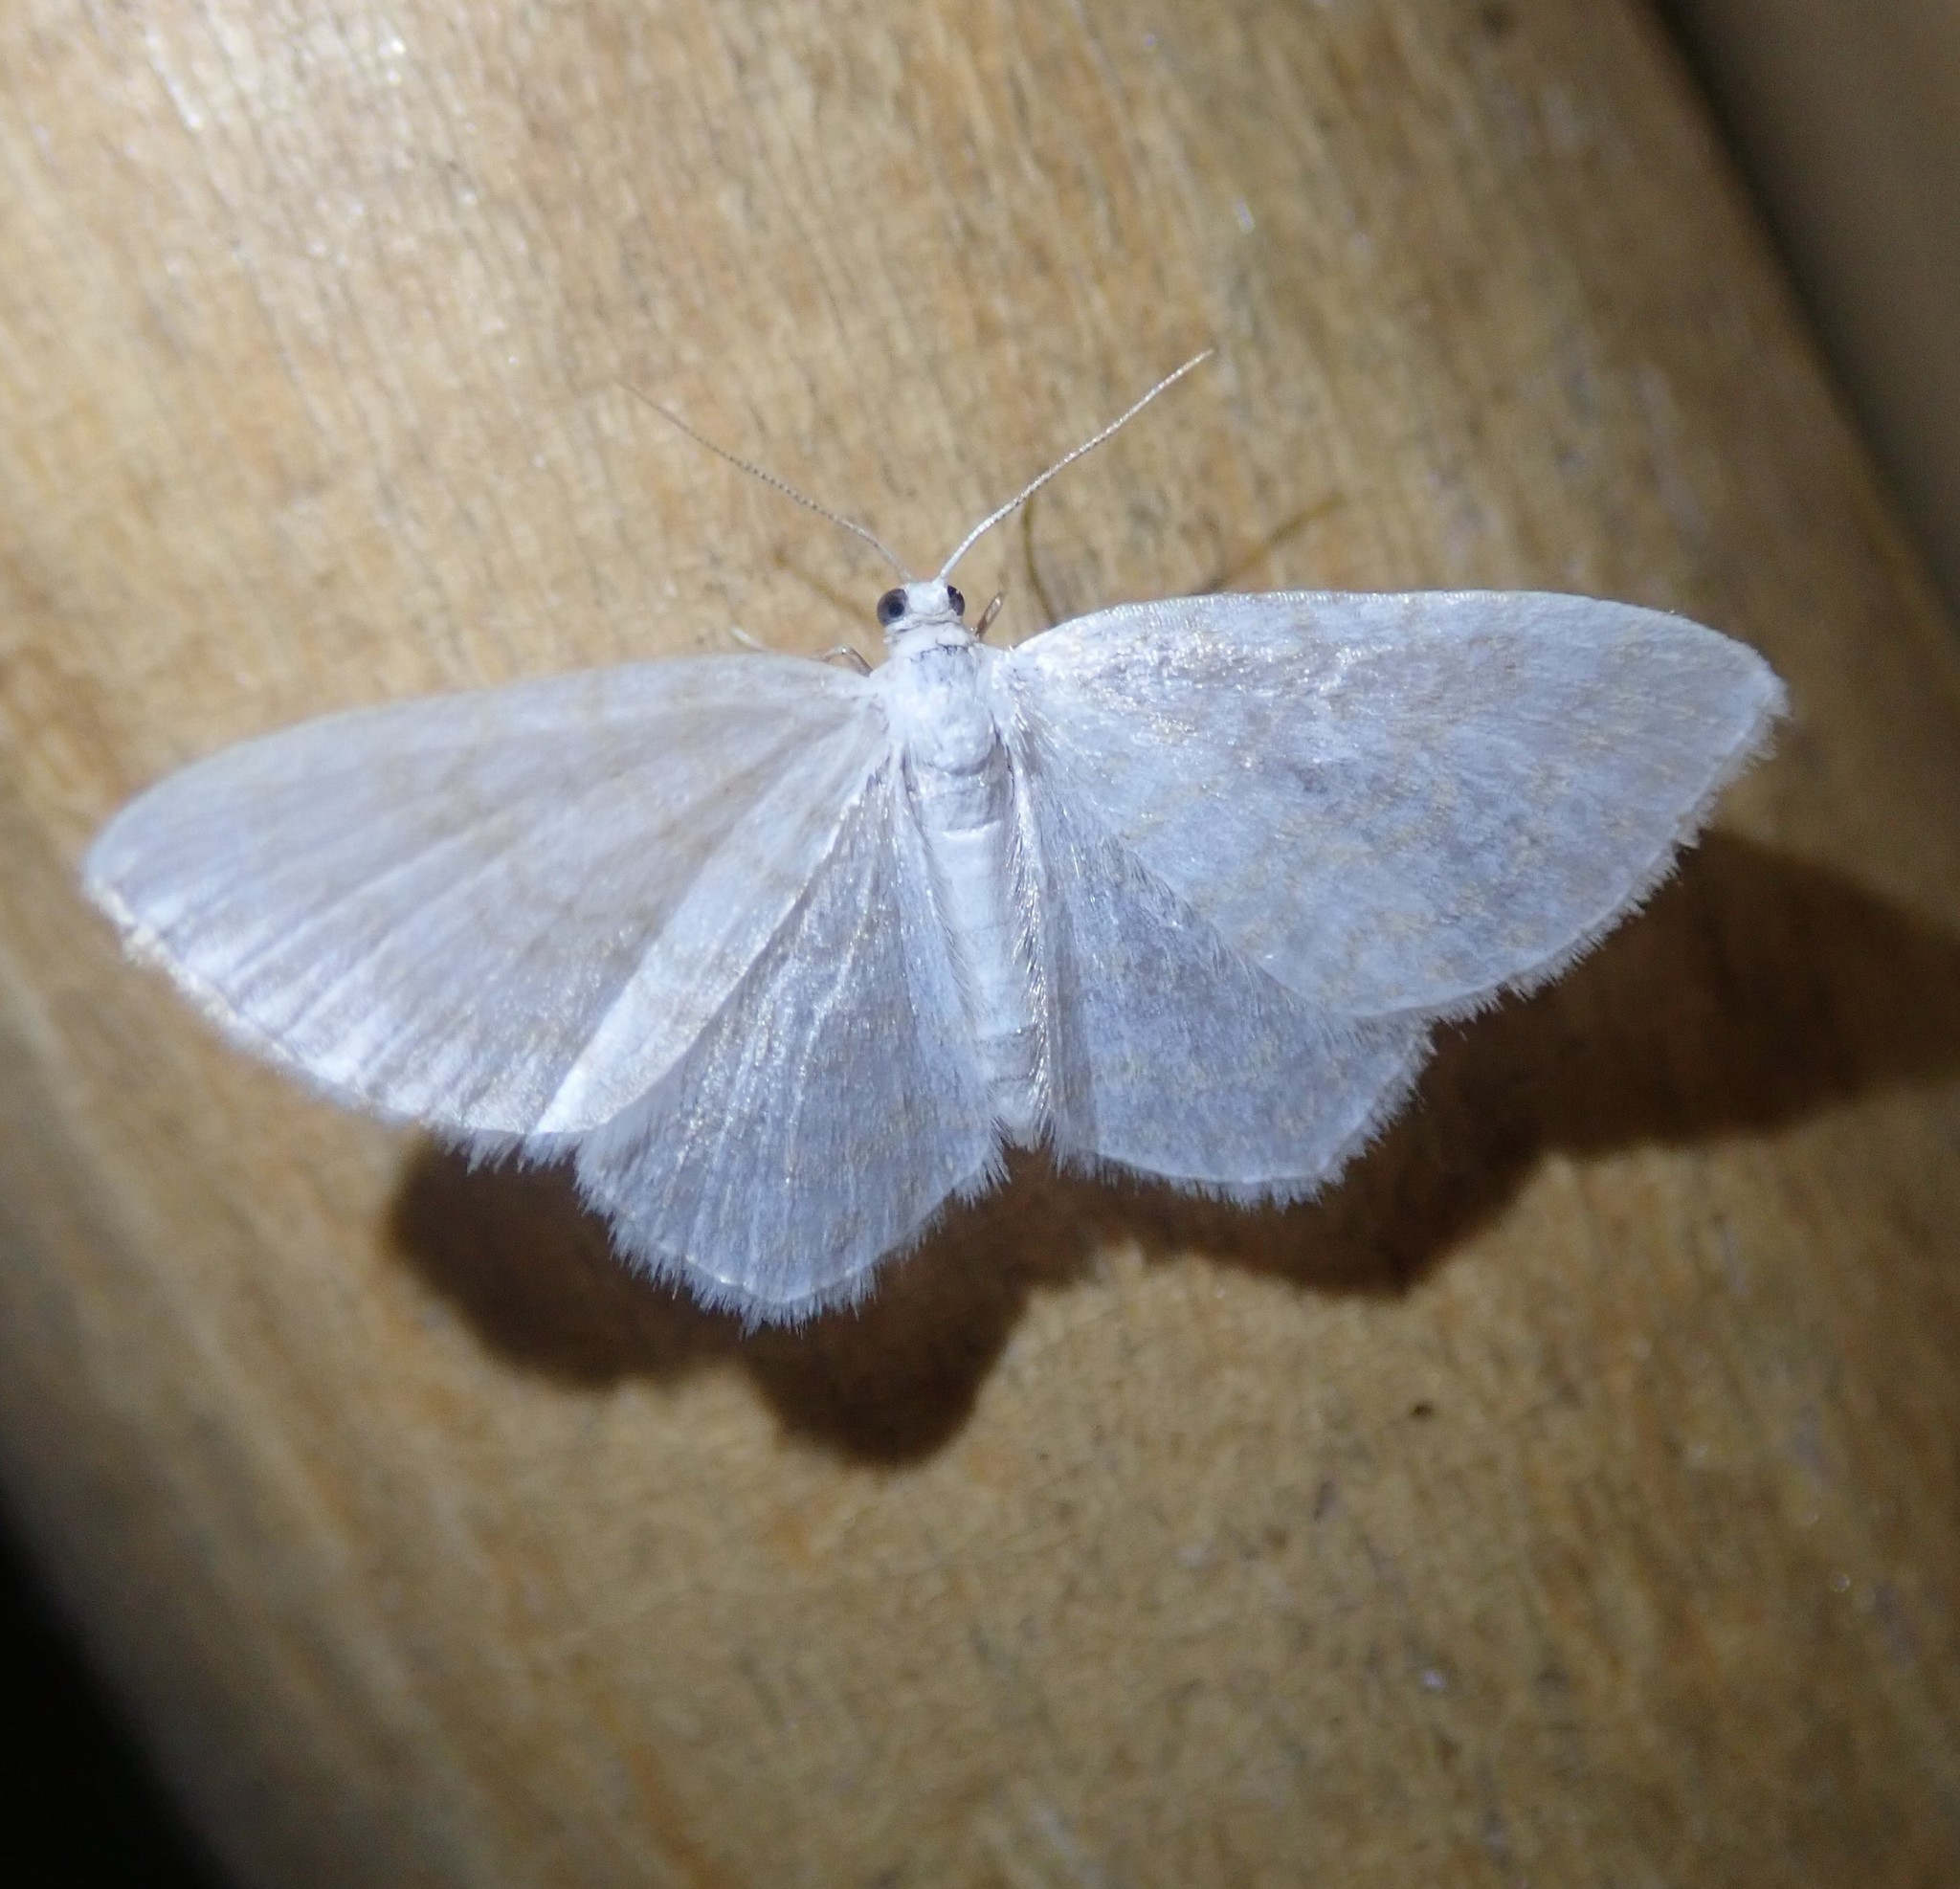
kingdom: Animalia
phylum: Arthropoda
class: Insecta
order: Lepidoptera
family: Geometridae
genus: Asthena
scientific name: Asthena albulata
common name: Small white wave
